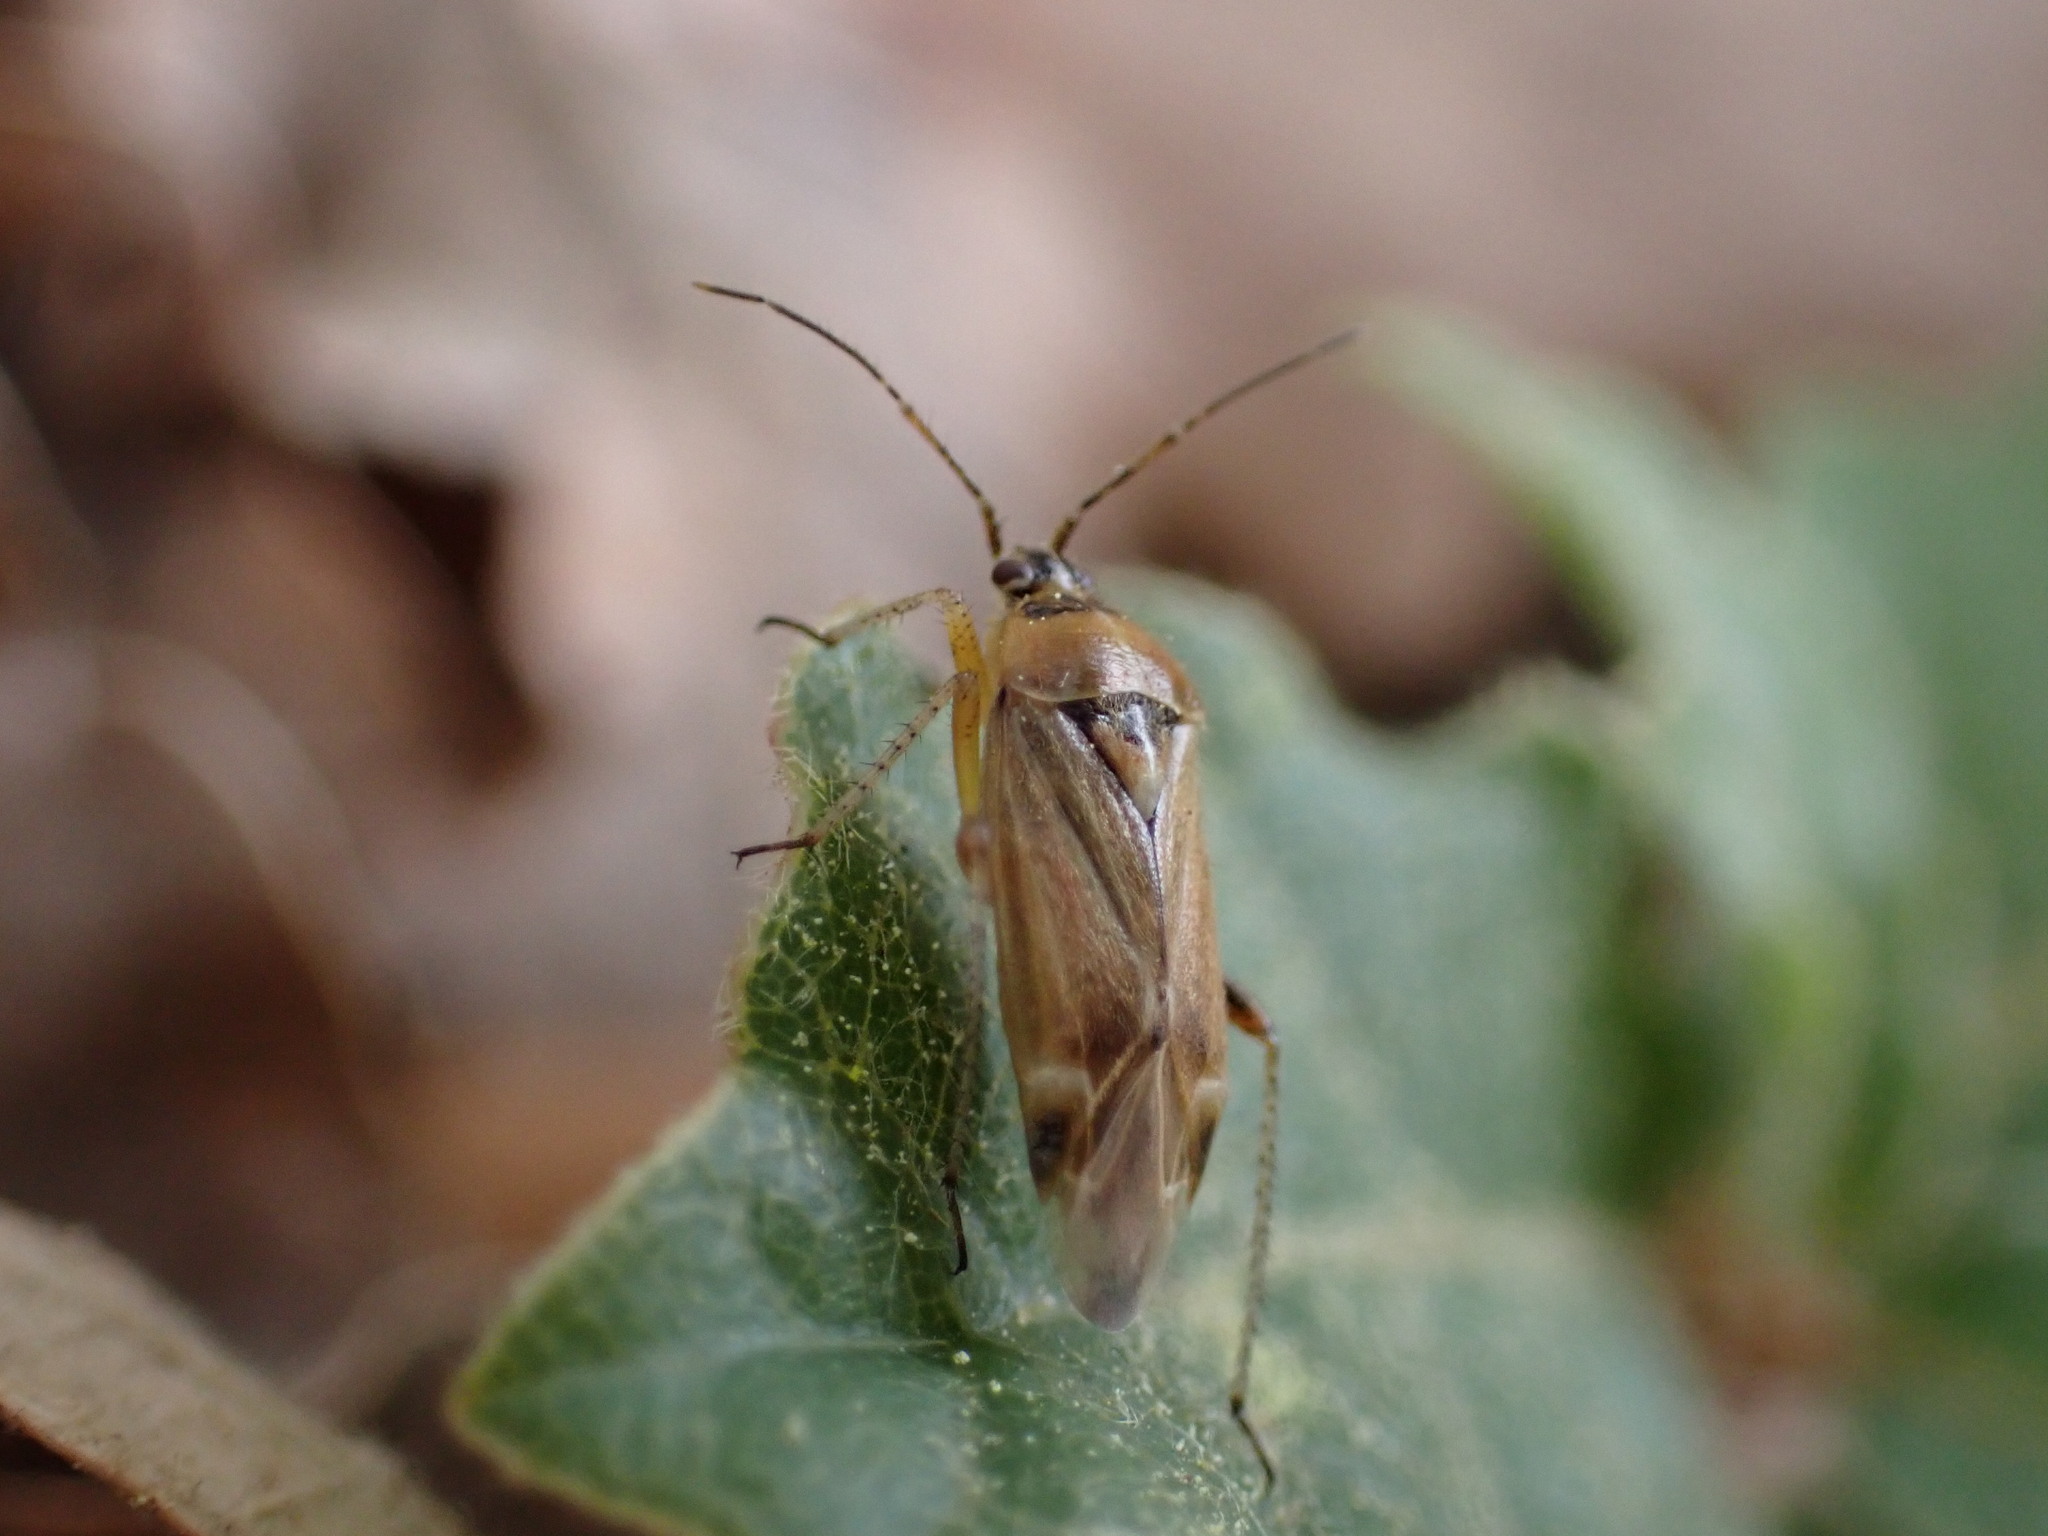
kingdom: Animalia
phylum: Arthropoda
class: Insecta
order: Hemiptera
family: Miridae
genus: Harpocera
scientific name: Harpocera thoracica
